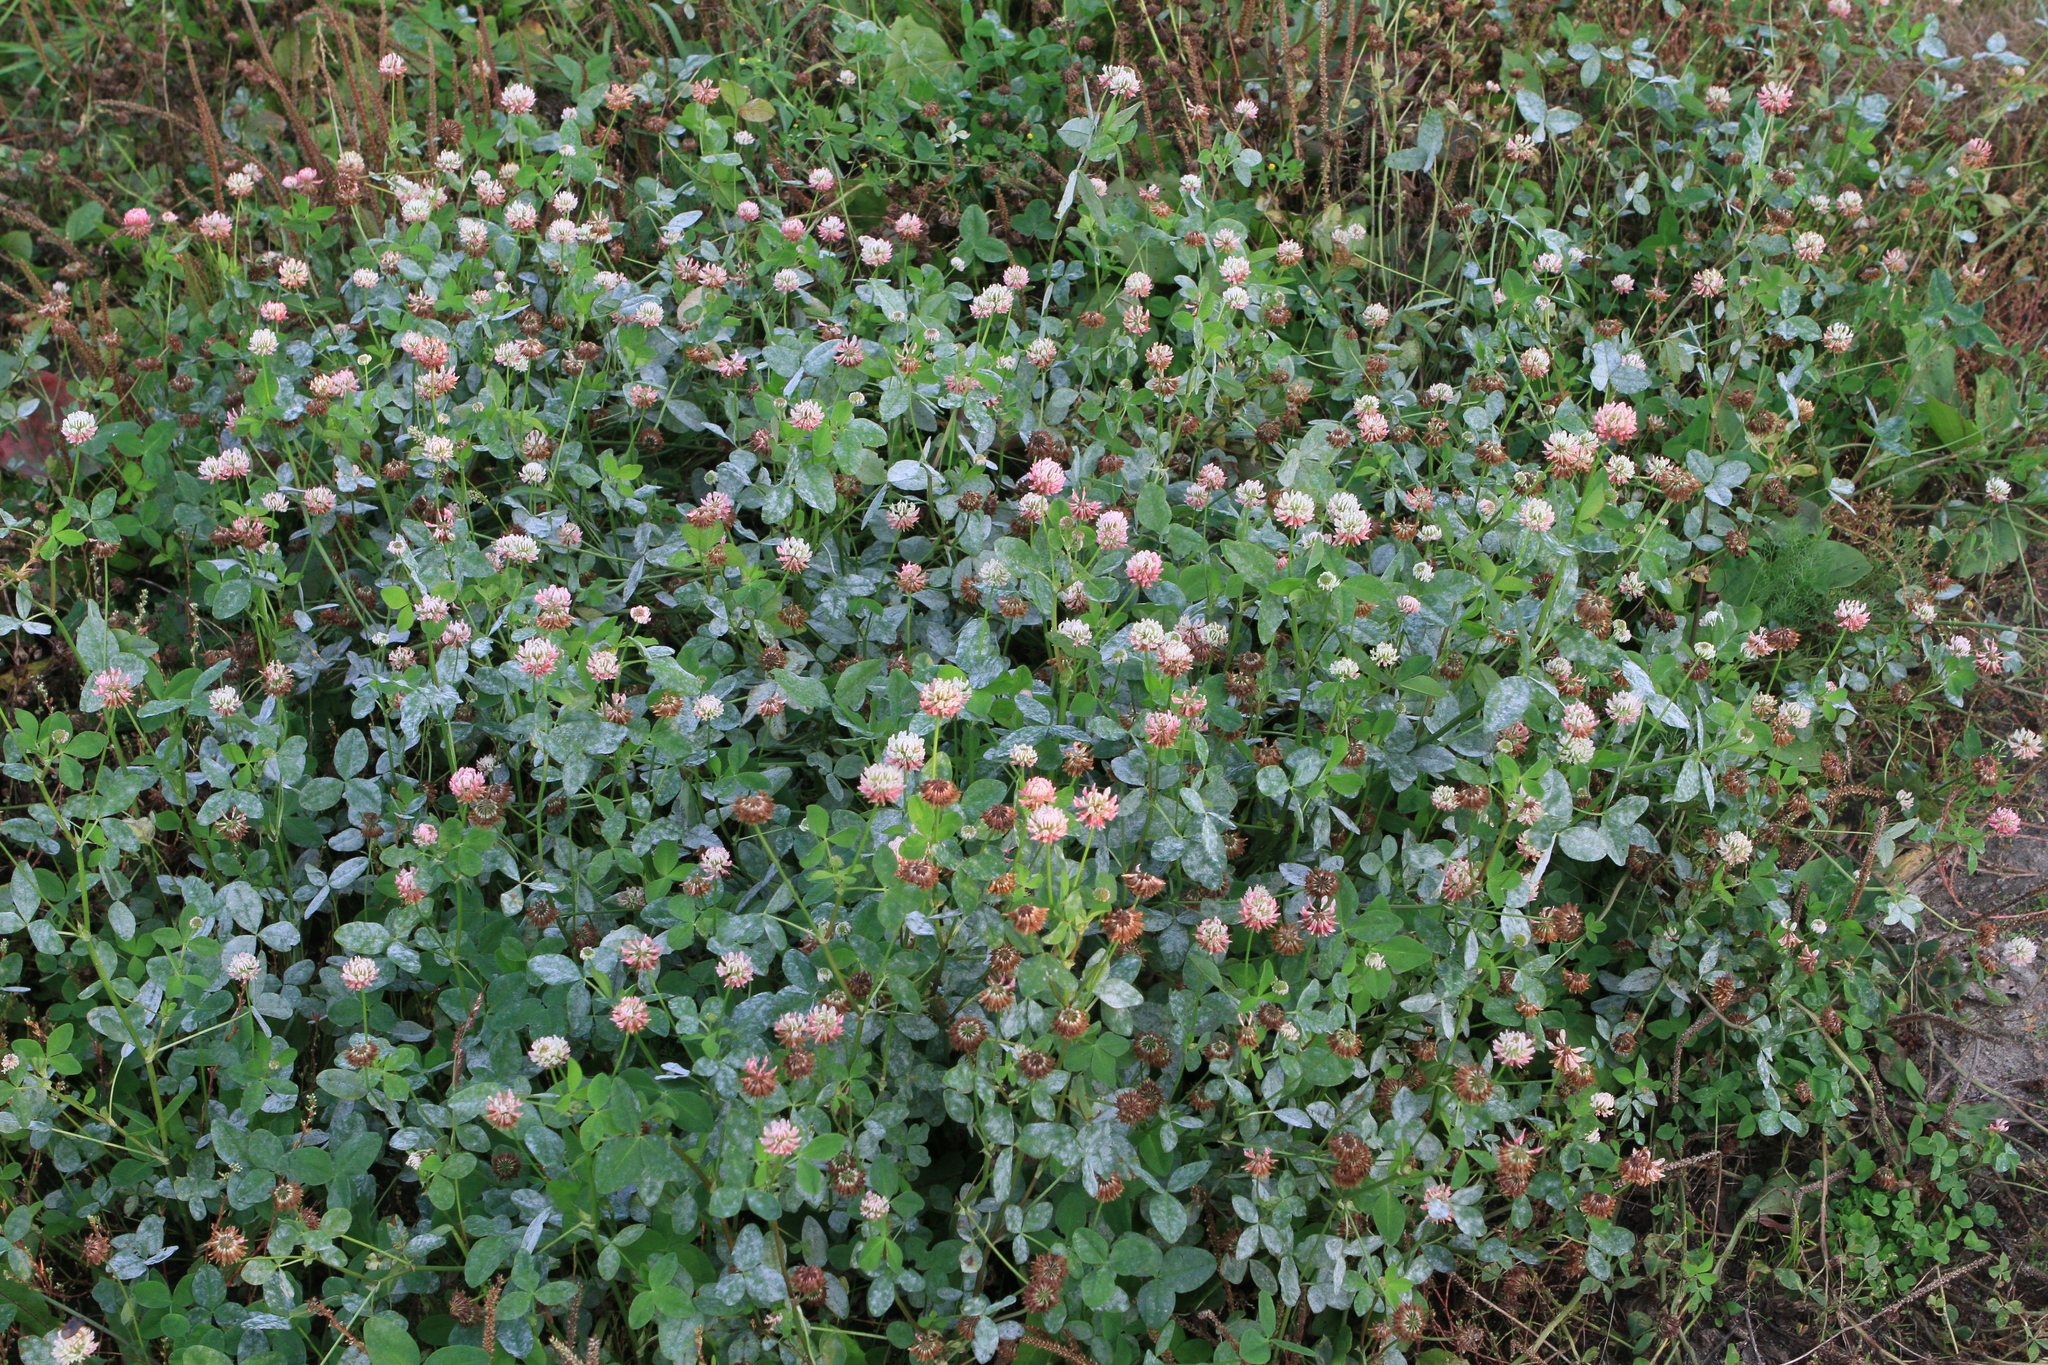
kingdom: Plantae
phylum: Tracheophyta
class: Magnoliopsida
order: Fabales
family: Fabaceae
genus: Trifolium
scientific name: Trifolium hybridum
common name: Alsike clover
